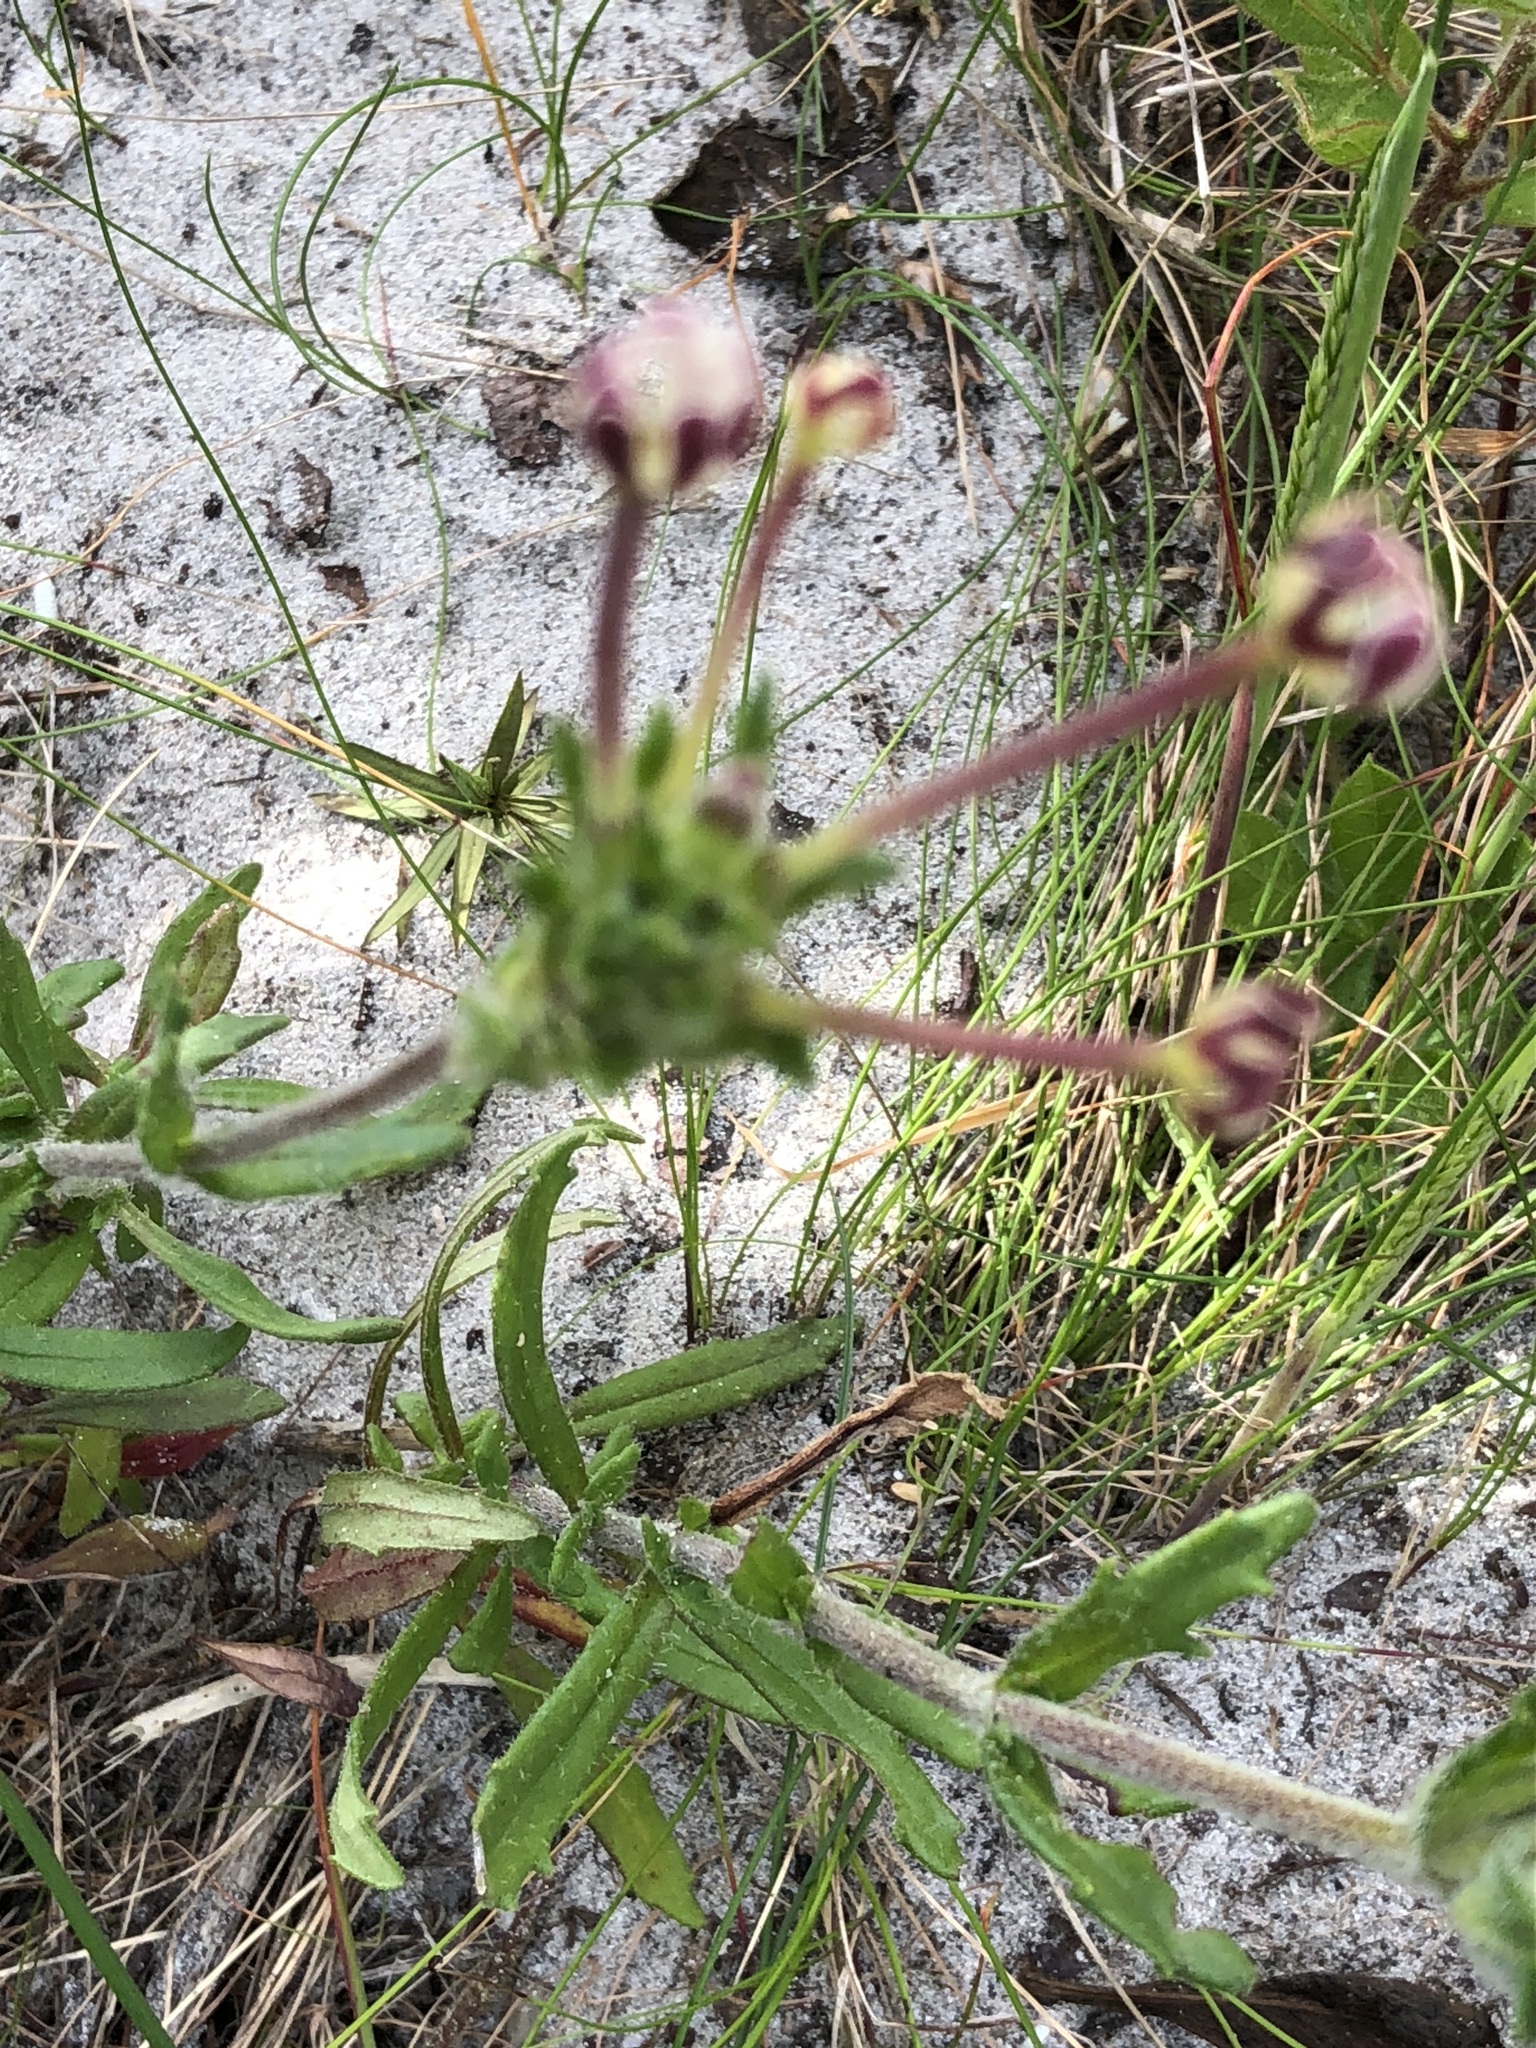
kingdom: Plantae
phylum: Tracheophyta
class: Magnoliopsida
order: Lamiales
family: Scrophulariaceae
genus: Zaluzianskya
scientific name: Zaluzianskya capensis
